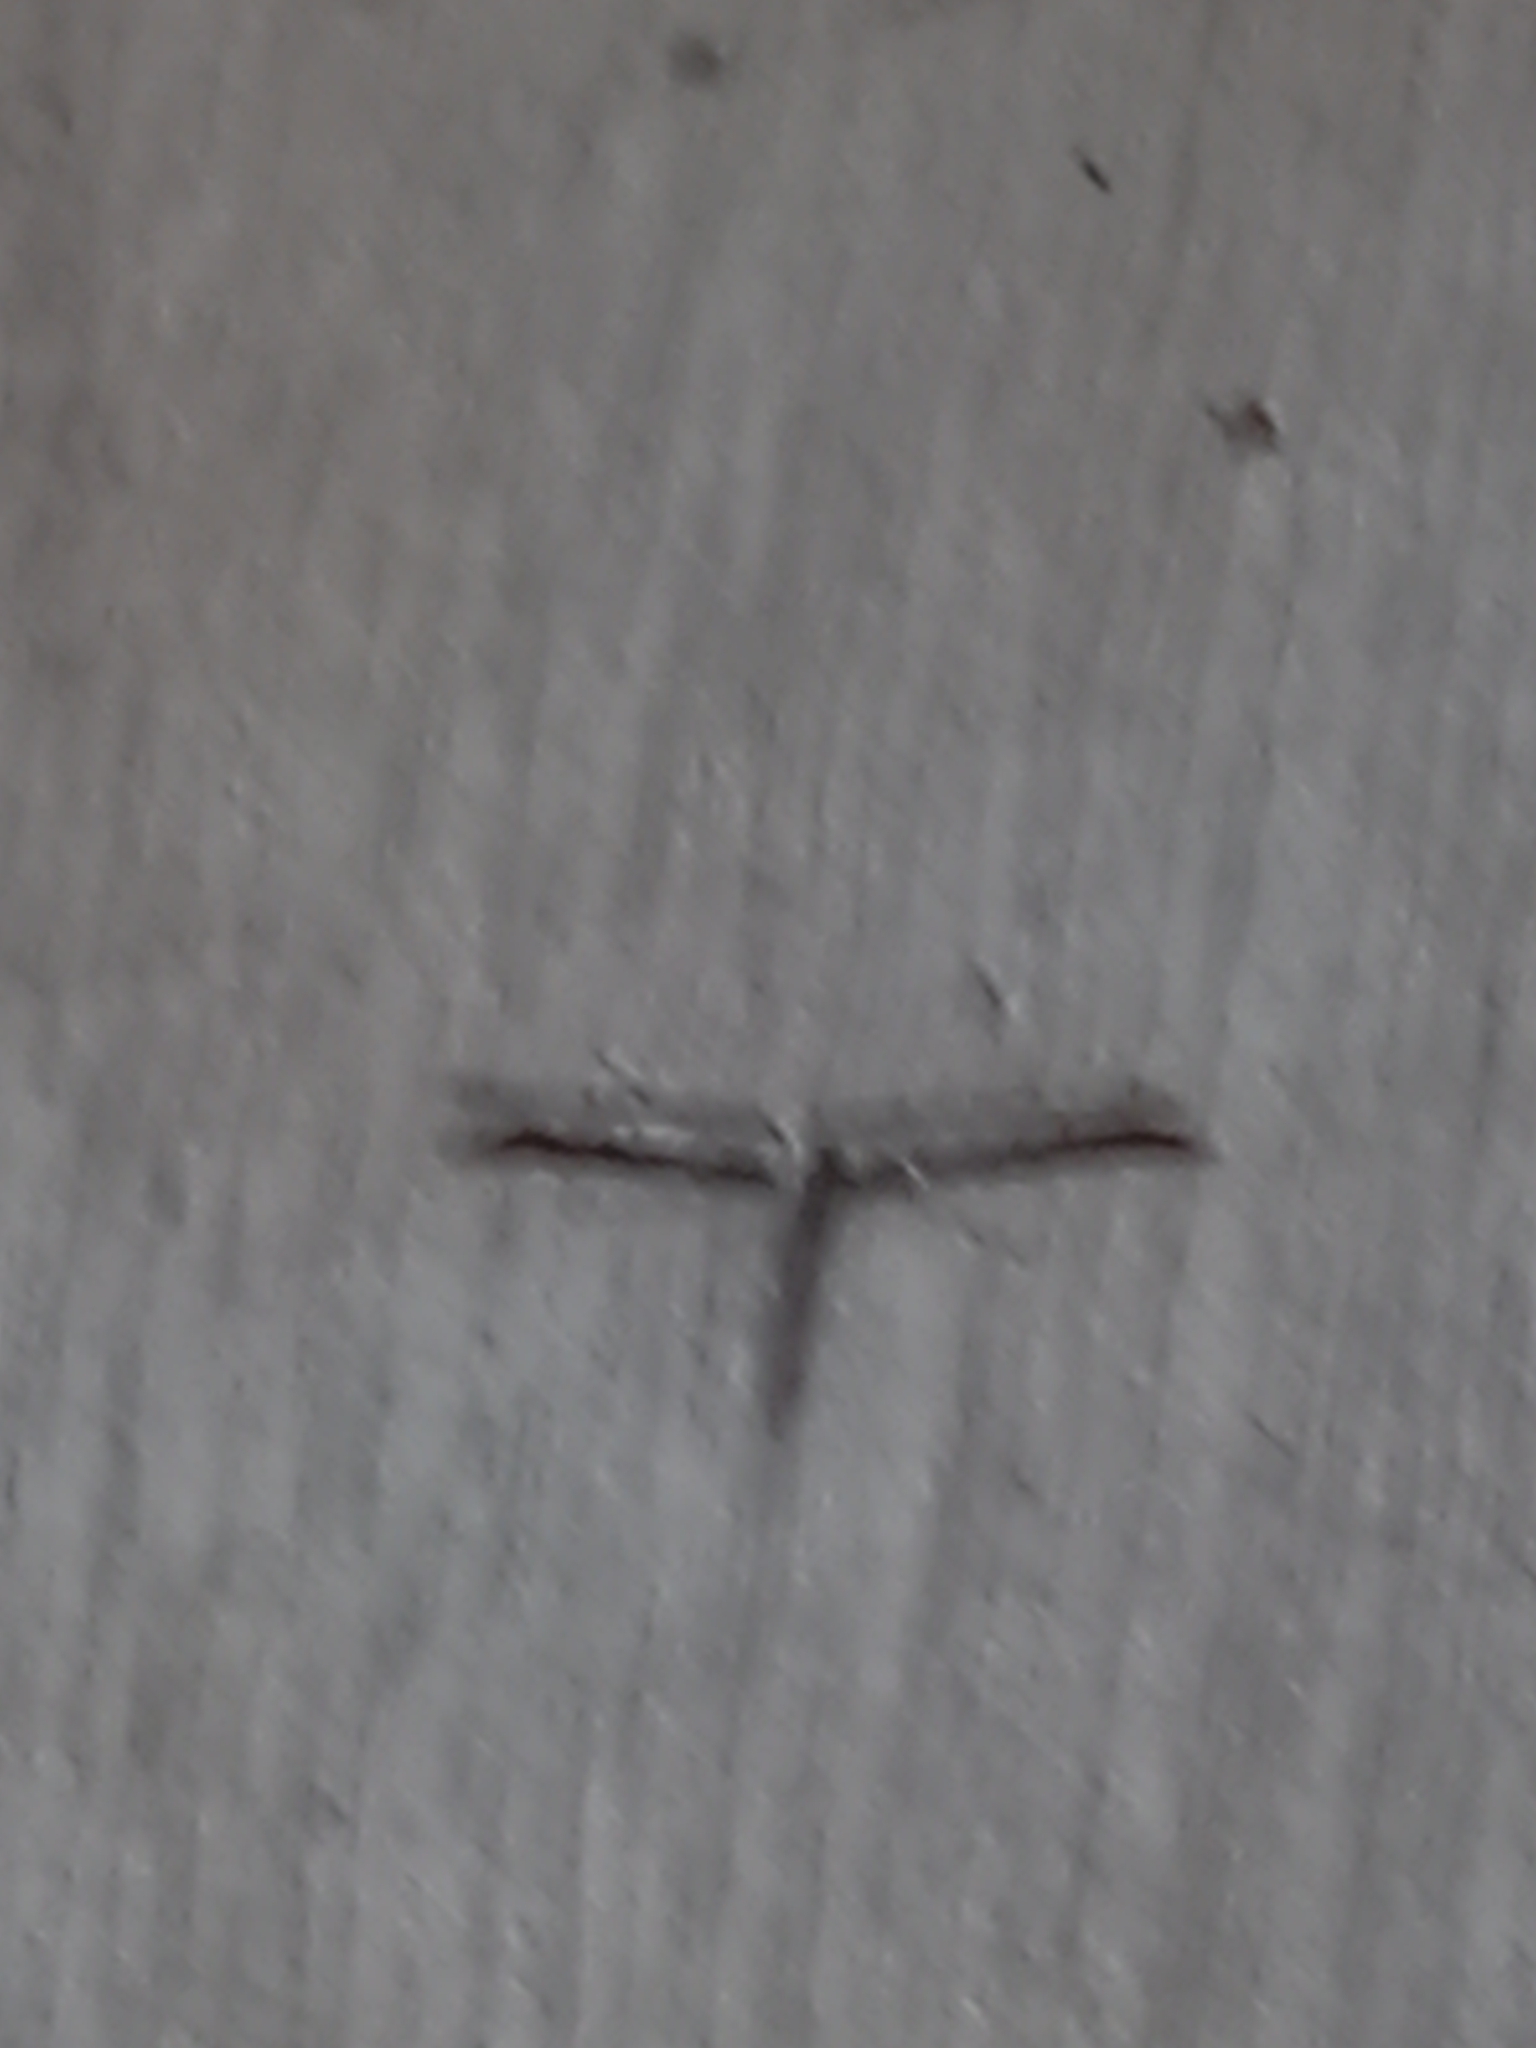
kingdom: Animalia
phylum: Arthropoda
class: Insecta
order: Lepidoptera
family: Pterophoridae
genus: Emmelina
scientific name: Emmelina monodactyla
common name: Common plume
